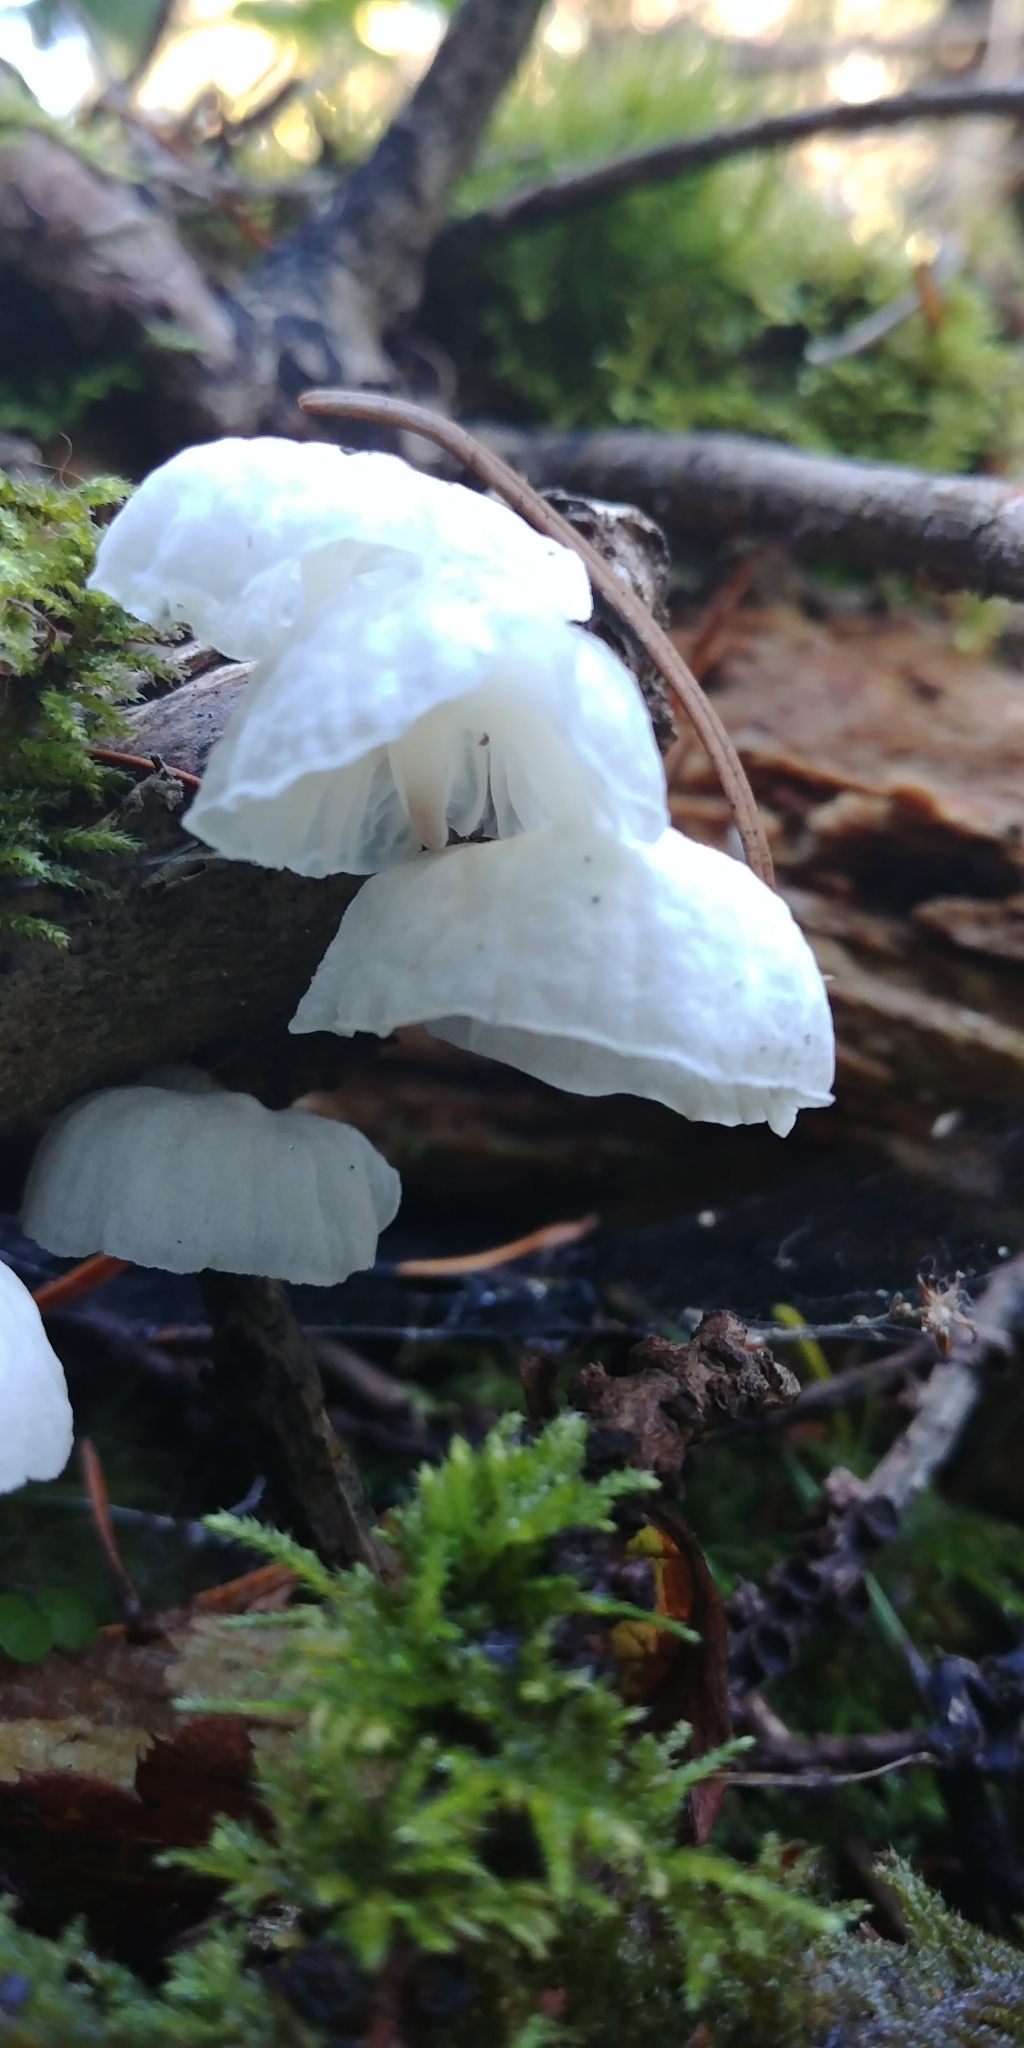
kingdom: Fungi
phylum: Basidiomycota
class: Agaricomycetes
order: Agaricales
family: Omphalotaceae
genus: Marasmiellus
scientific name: Marasmiellus candidus
